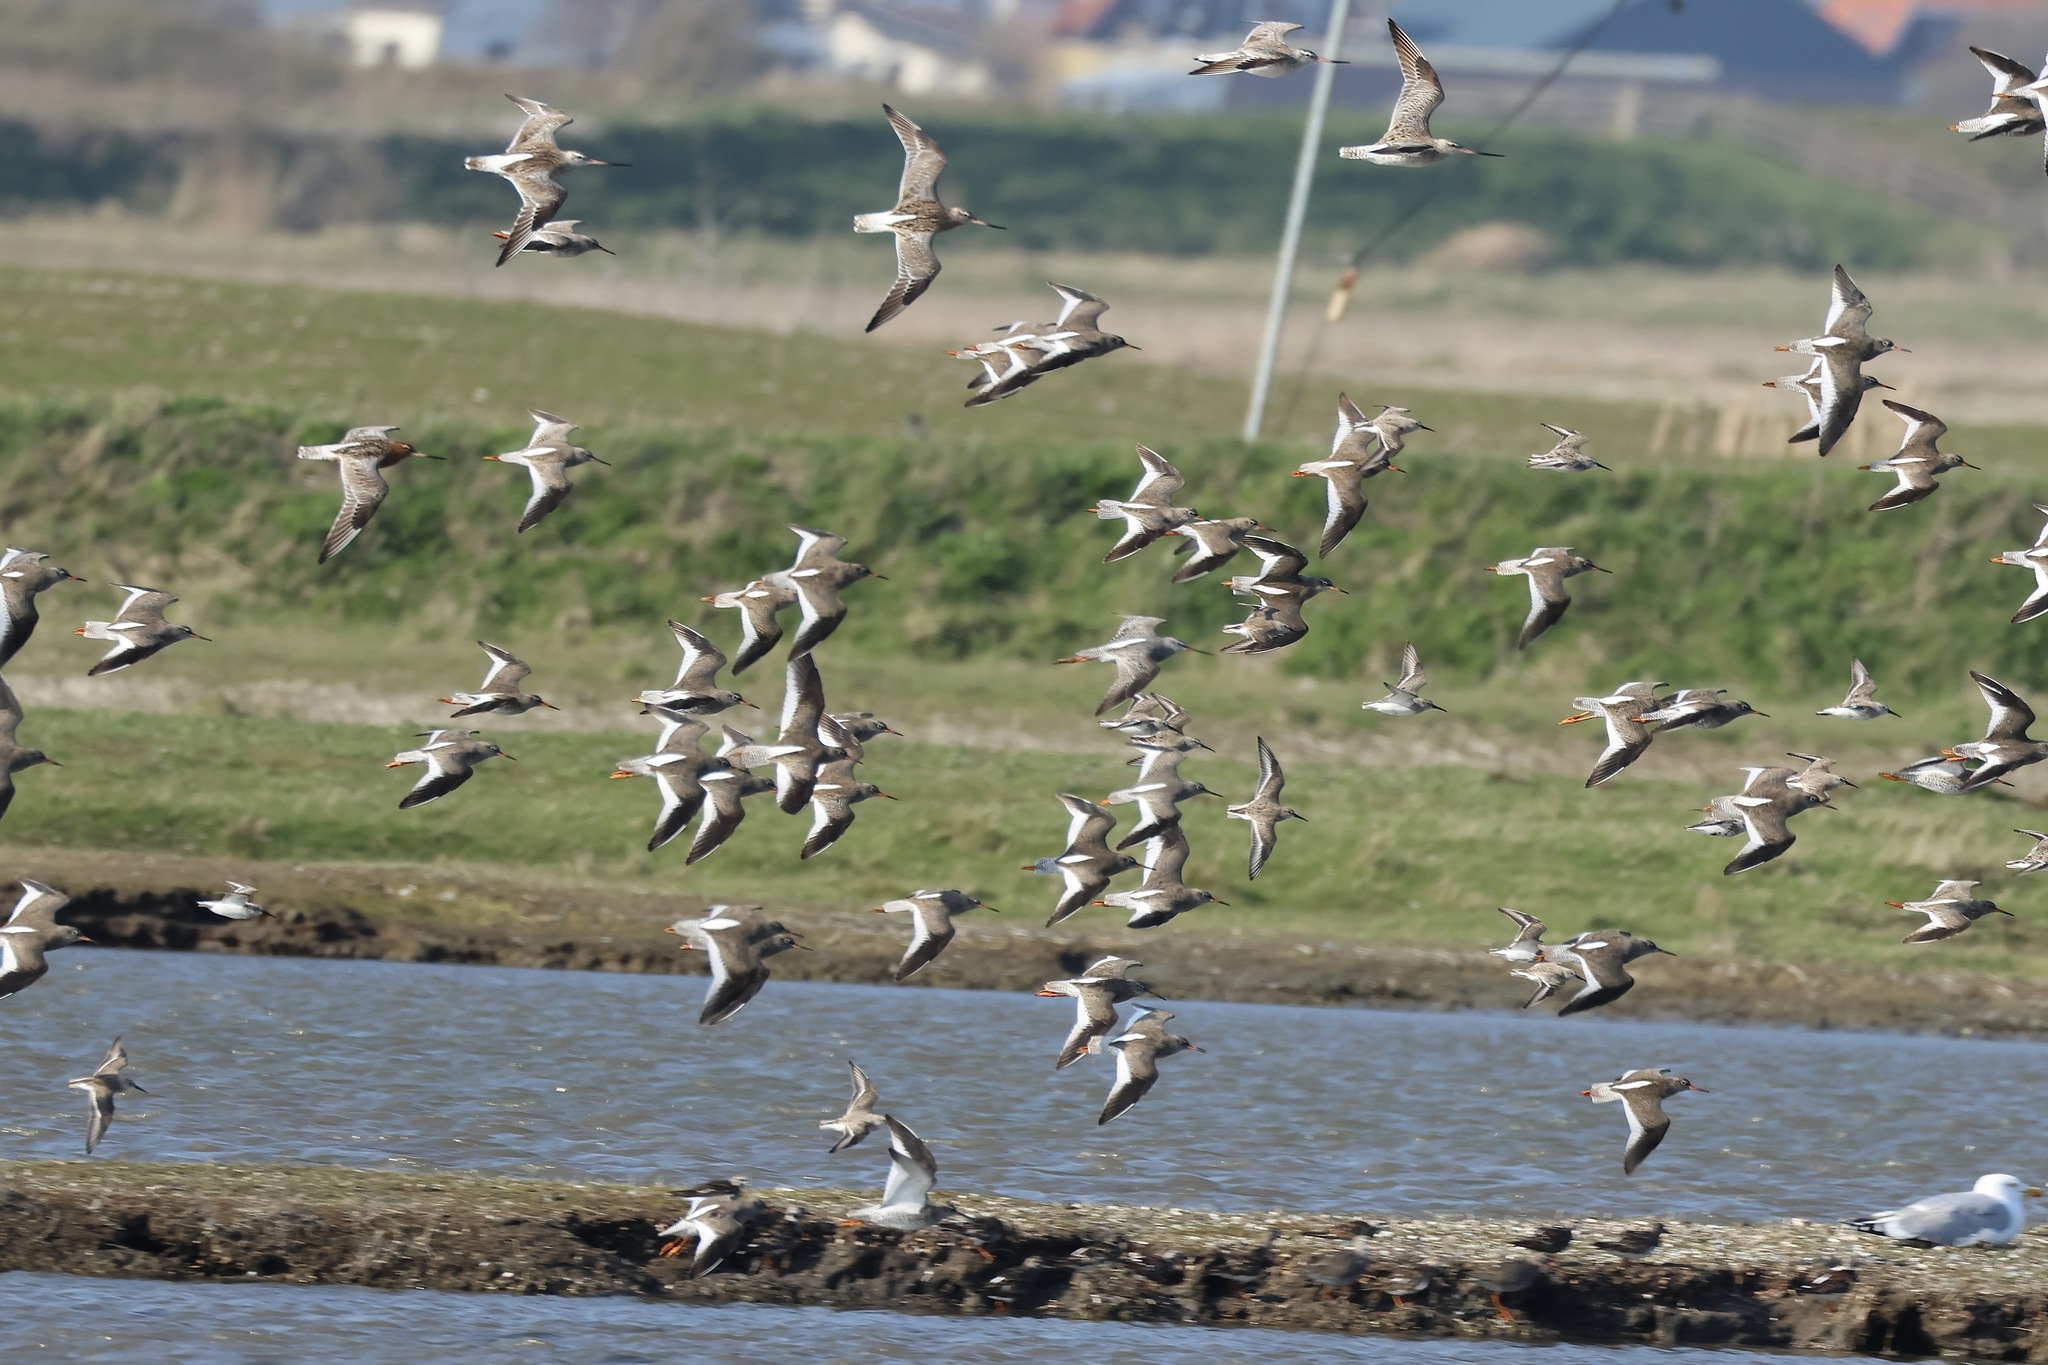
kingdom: Animalia
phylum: Chordata
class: Aves
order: Charadriiformes
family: Scolopacidae
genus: Tringa
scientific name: Tringa totanus
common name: Common redshank
